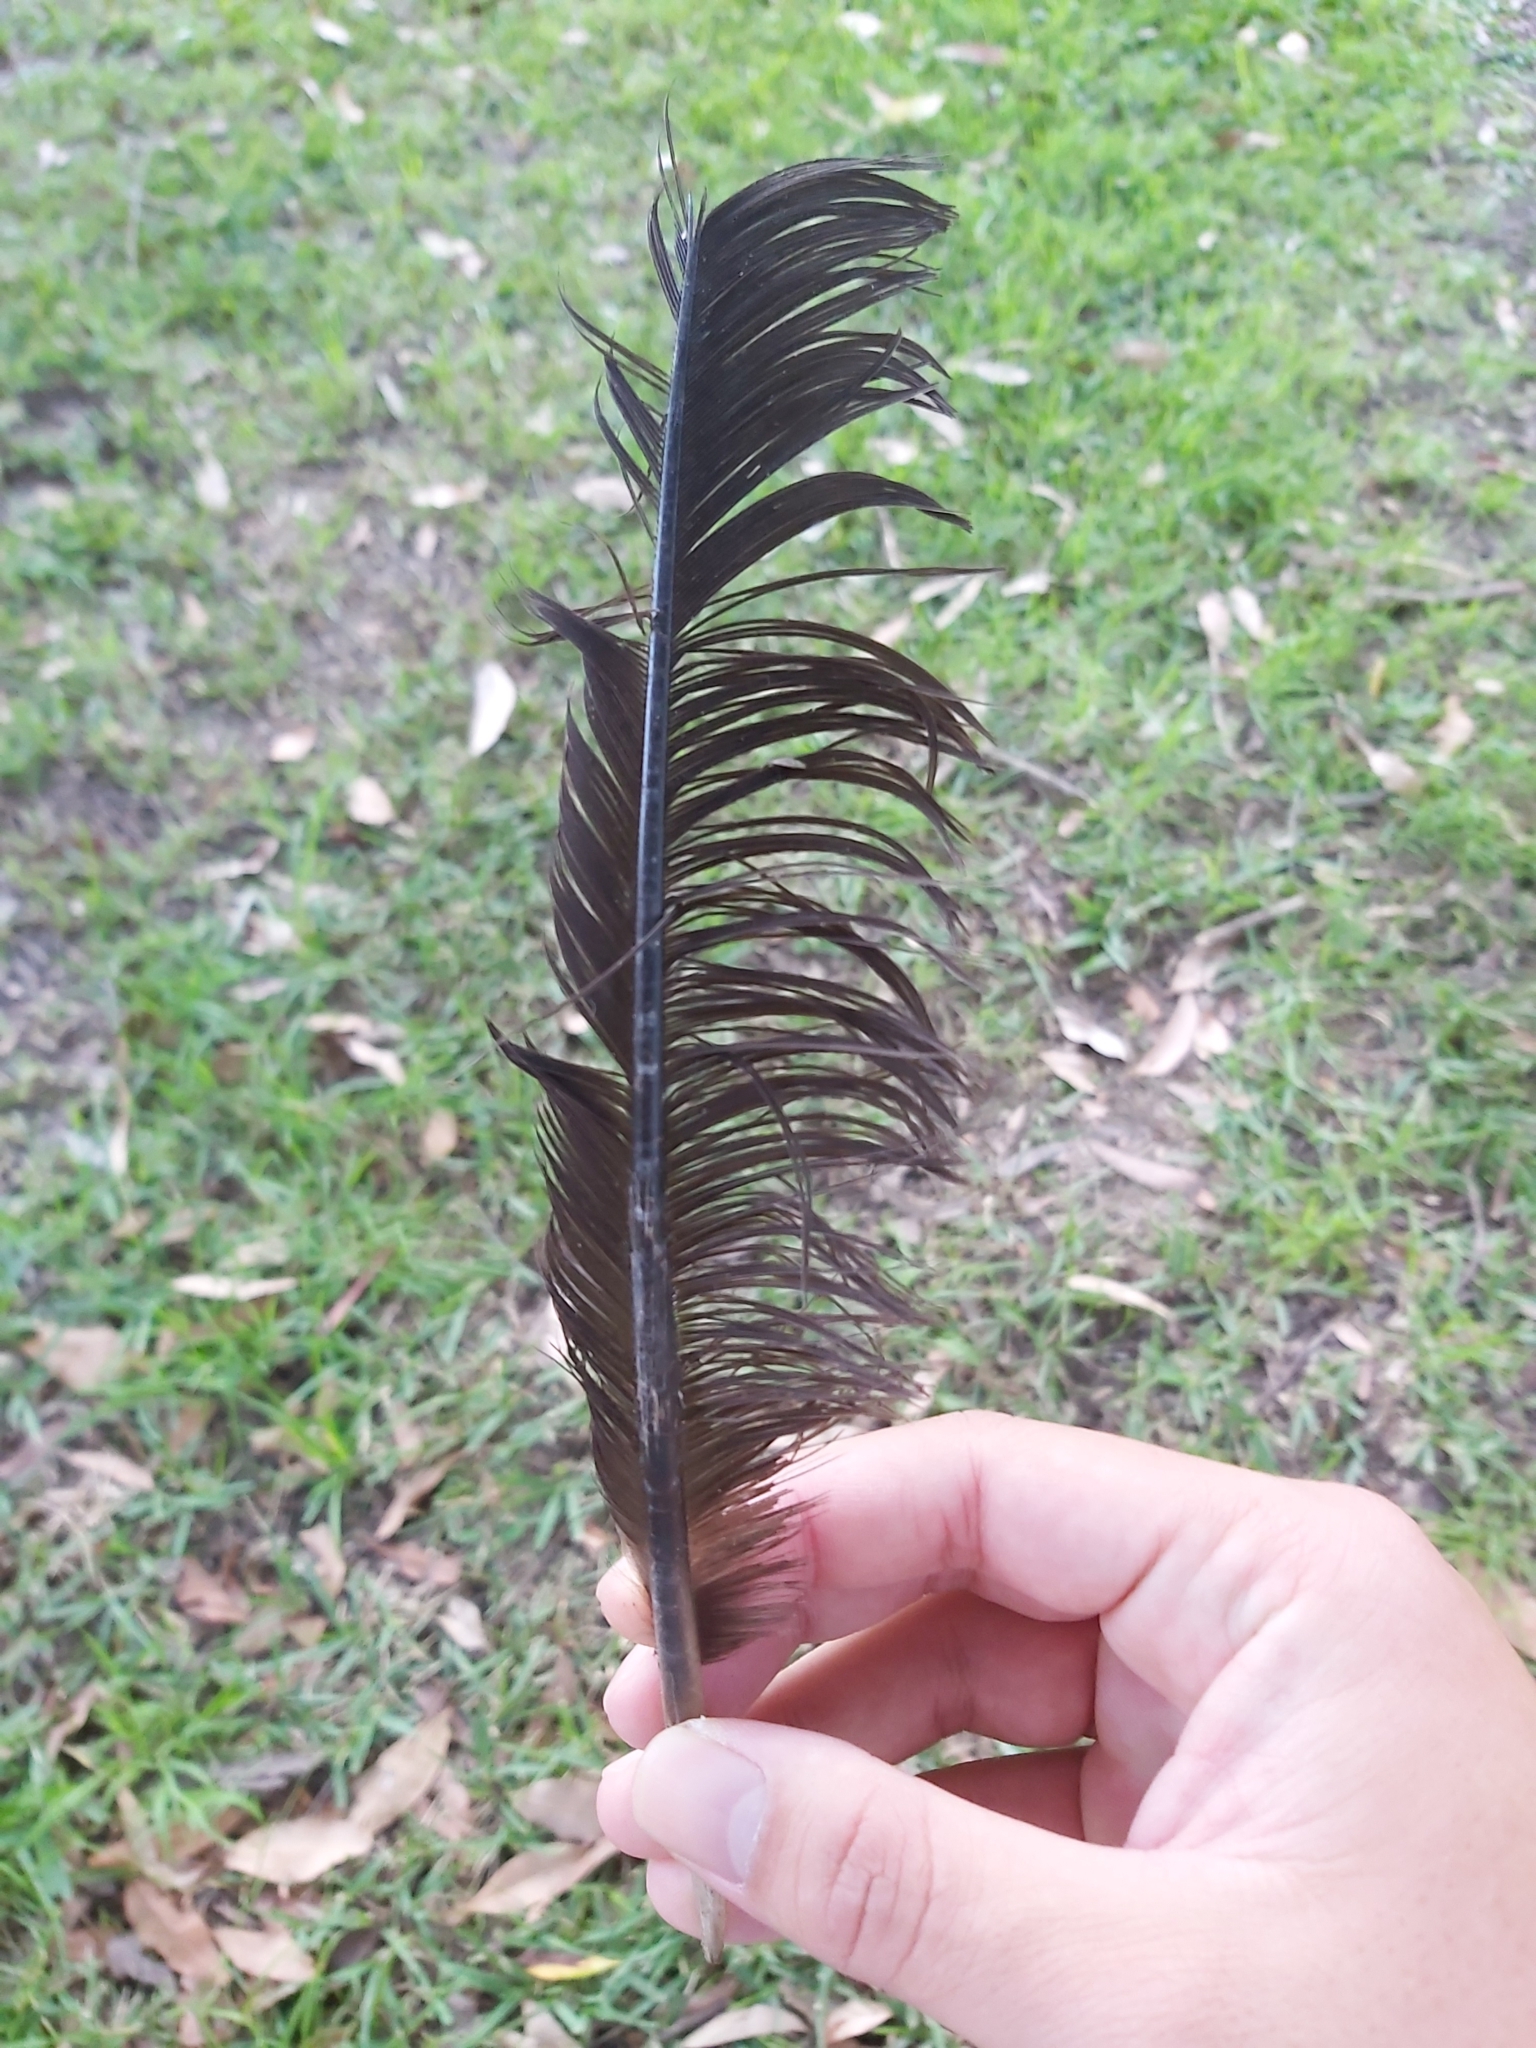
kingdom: Animalia
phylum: Chordata
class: Aves
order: Galliformes
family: Megapodiidae
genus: Alectura
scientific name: Alectura lathami
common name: Australian brushturkey
